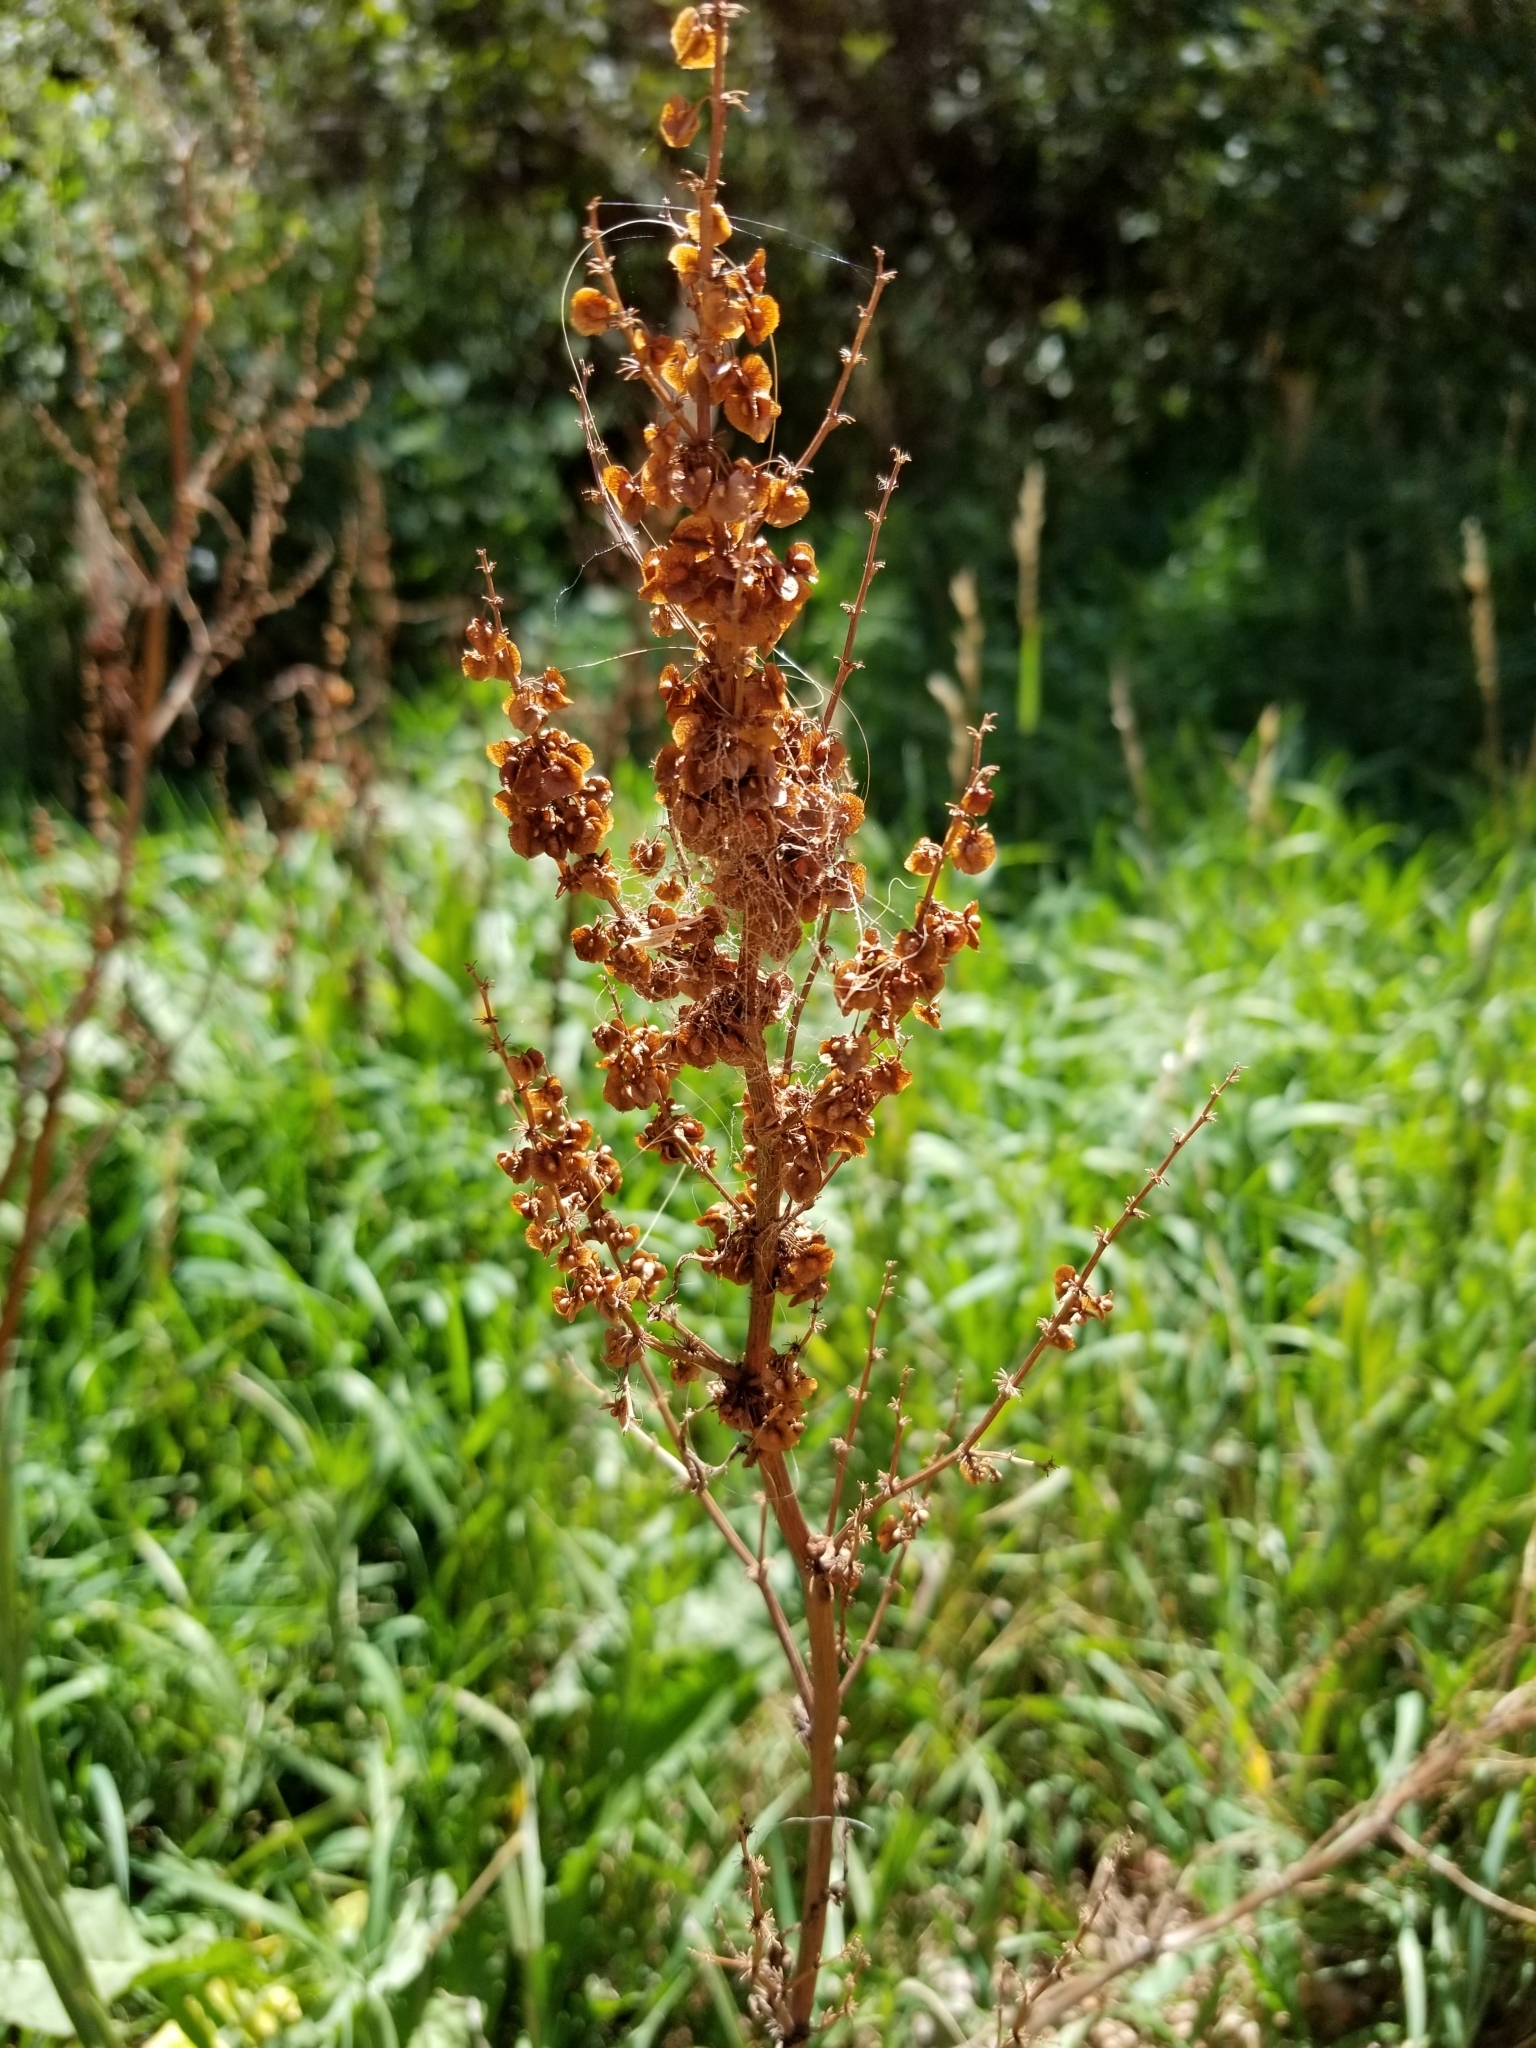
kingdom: Plantae
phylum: Tracheophyta
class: Magnoliopsida
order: Caryophyllales
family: Polygonaceae
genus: Rumex
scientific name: Rumex crispus
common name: Curled dock
